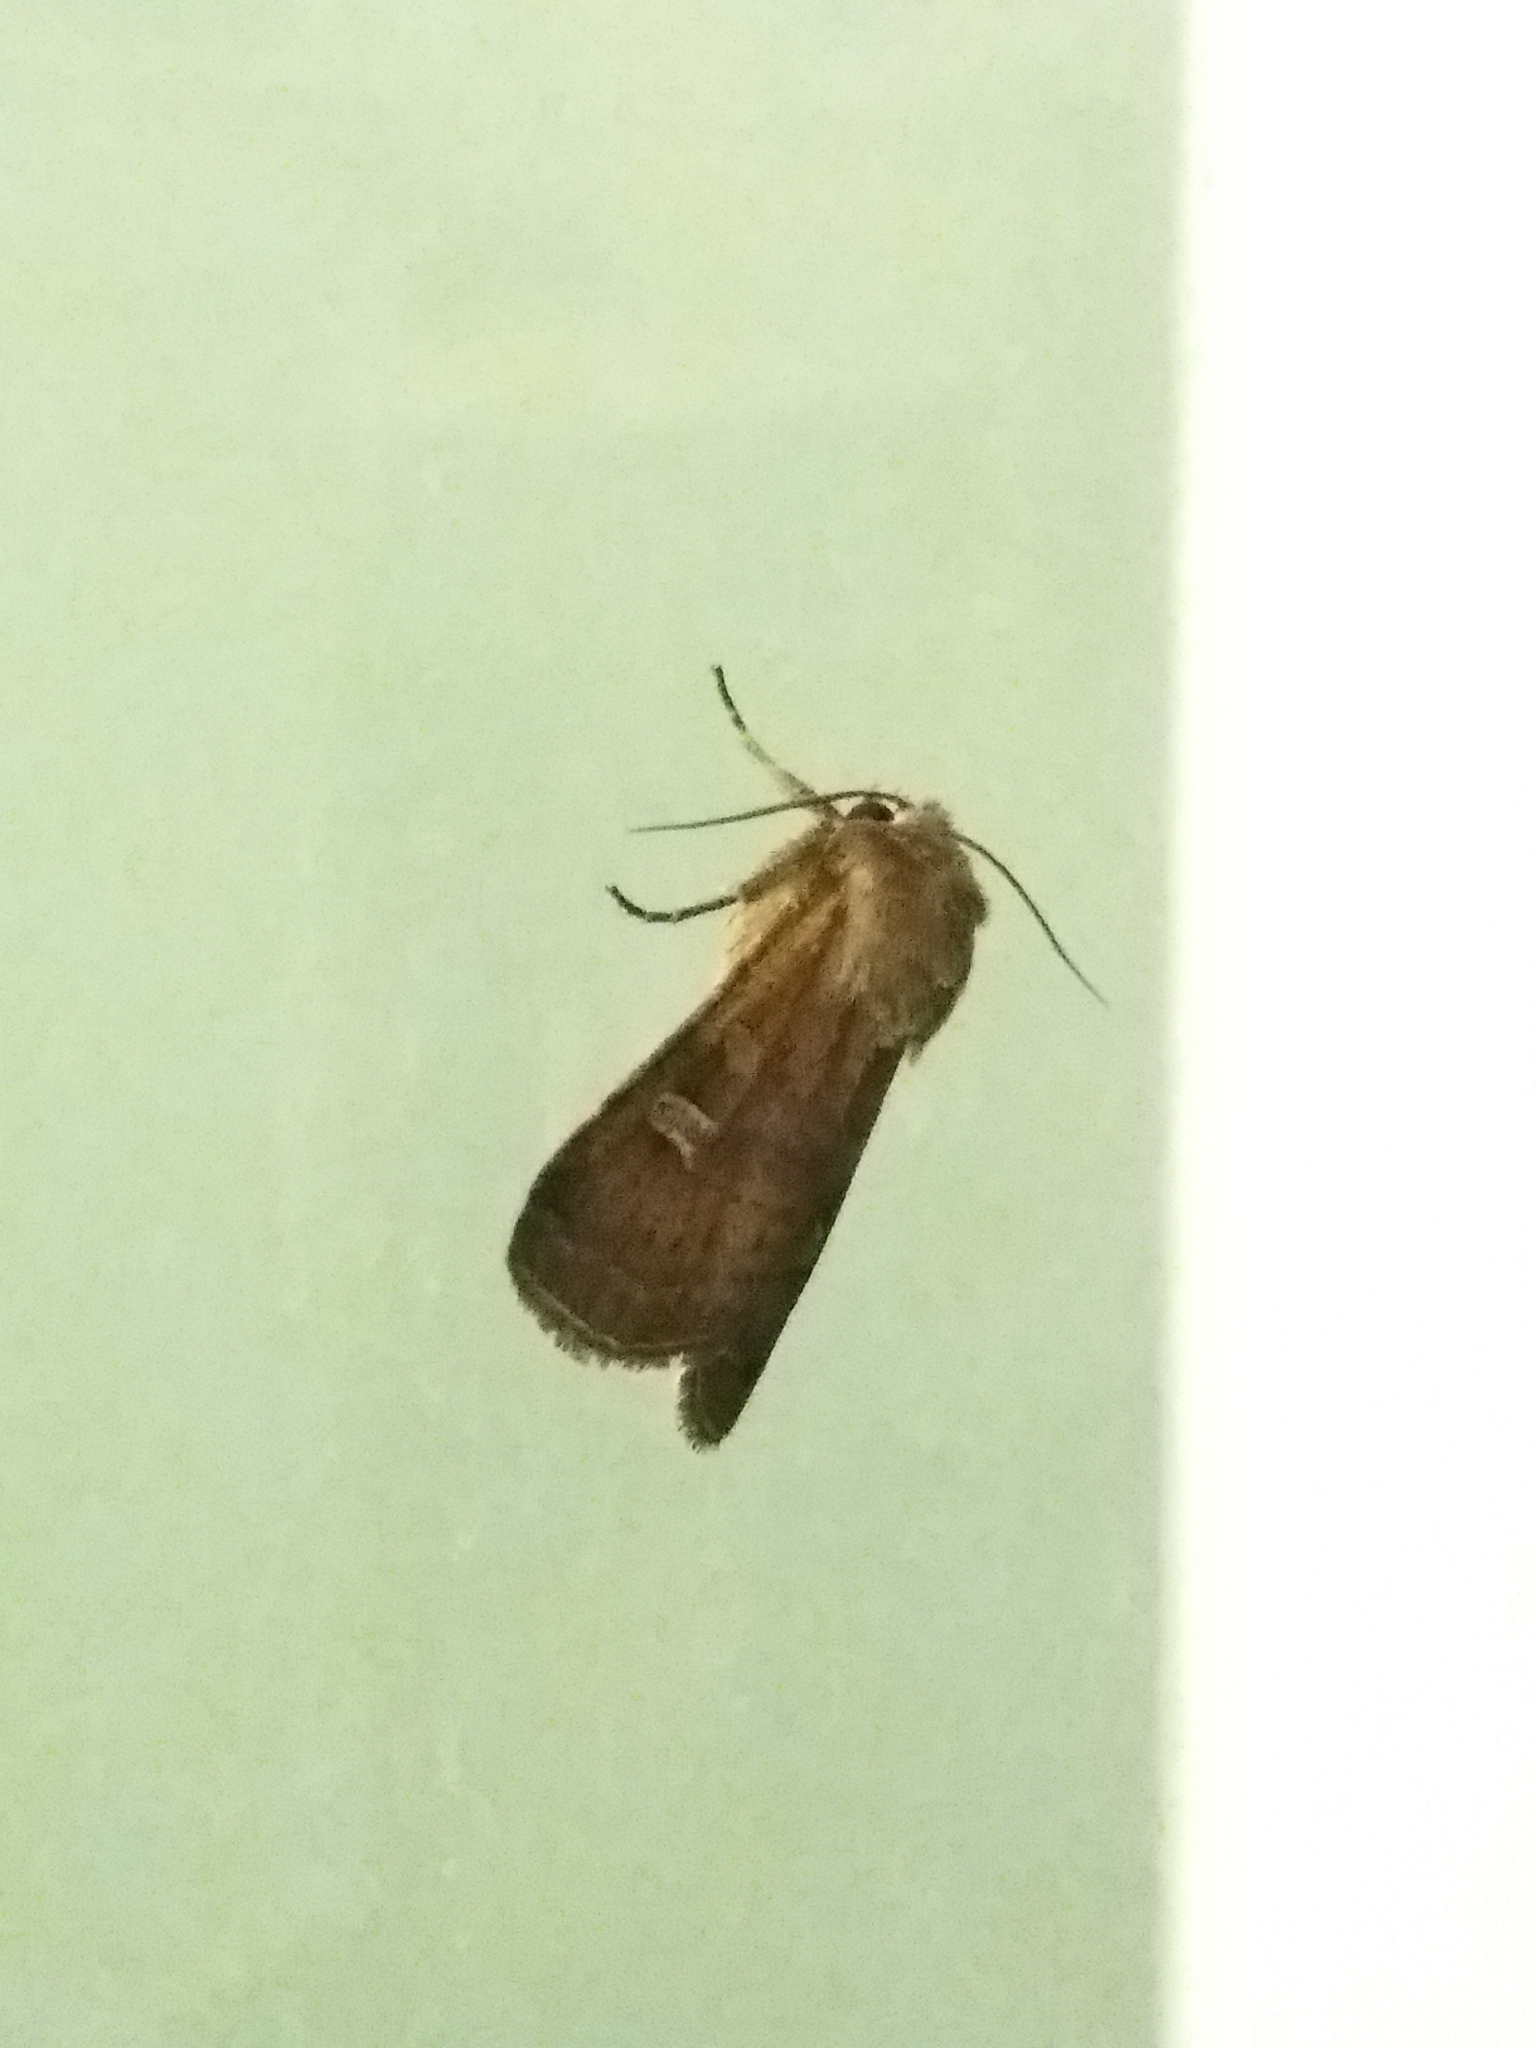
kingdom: Animalia
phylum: Arthropoda
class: Insecta
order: Lepidoptera
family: Noctuidae
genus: Xestia
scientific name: Xestia xanthographa
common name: Square-spot rustic
